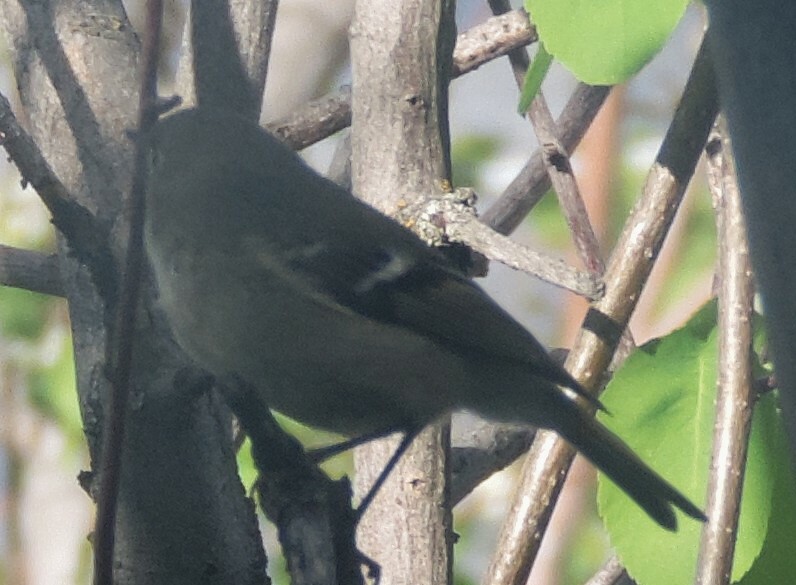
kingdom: Animalia
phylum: Chordata
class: Aves
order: Passeriformes
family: Regulidae
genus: Regulus
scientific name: Regulus calendula
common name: Ruby-crowned kinglet
